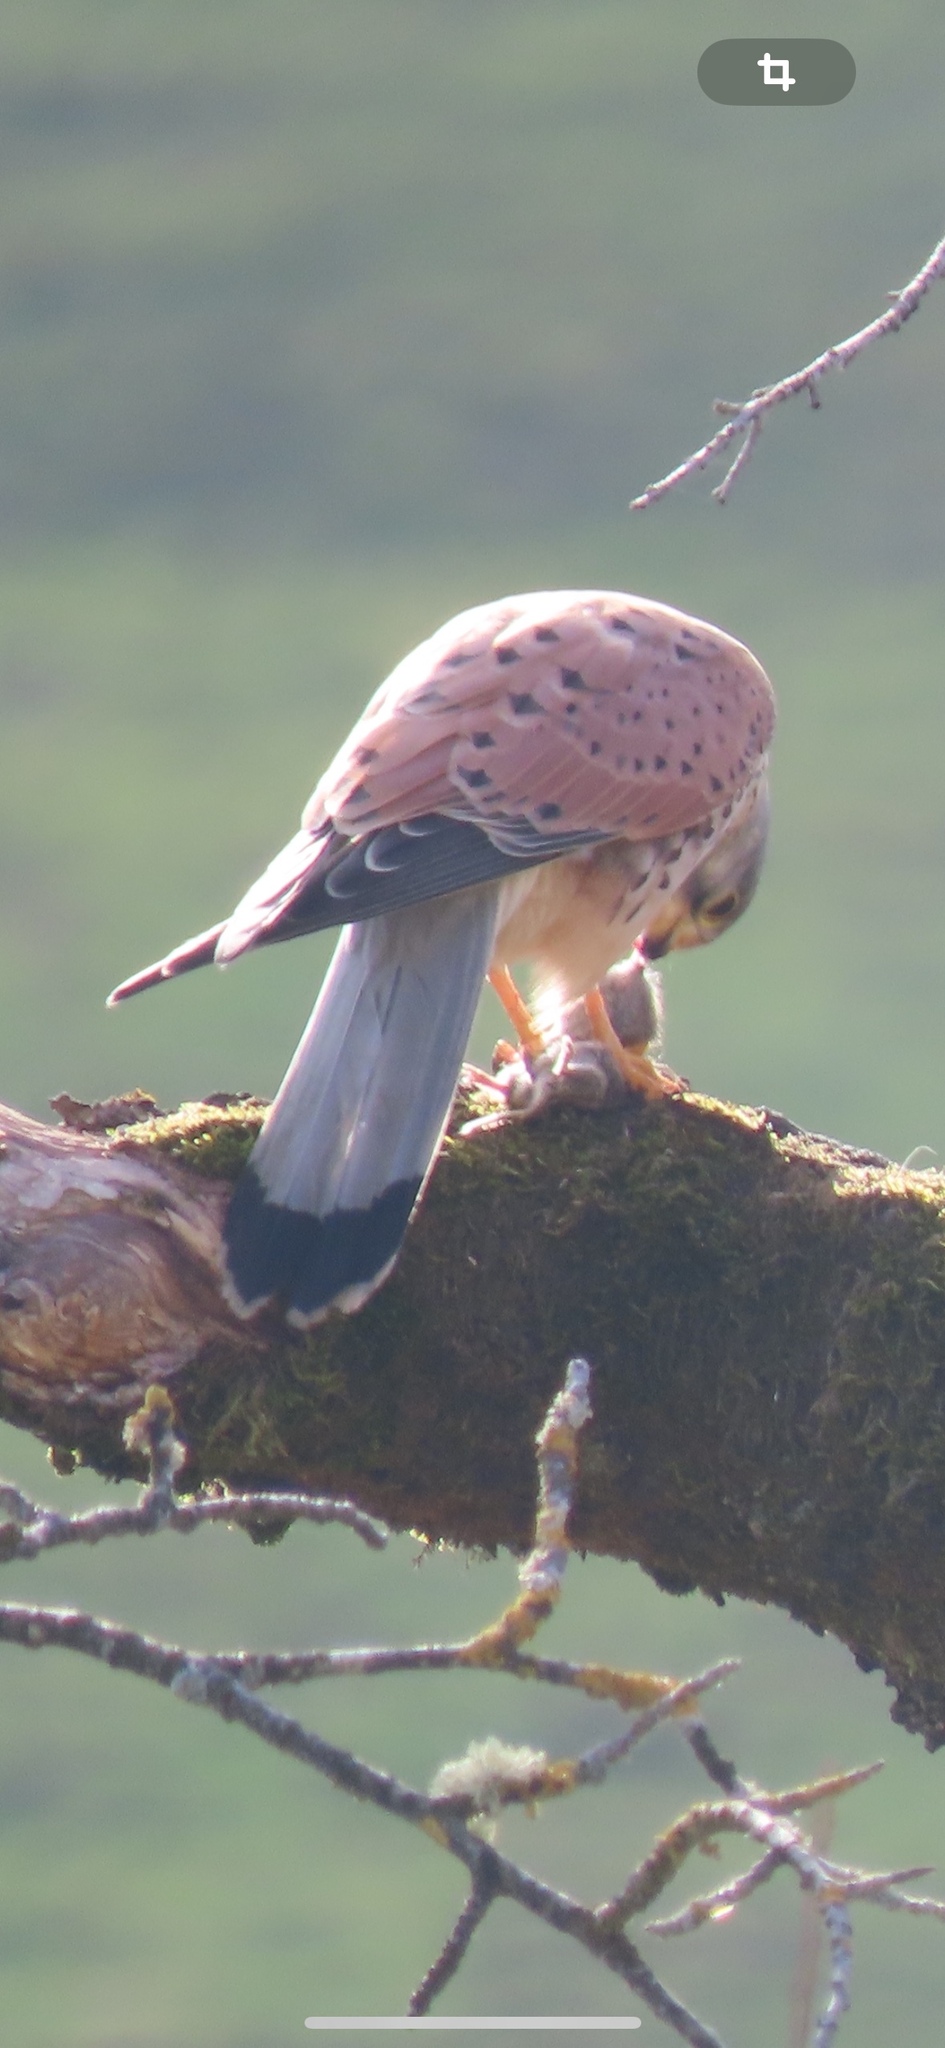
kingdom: Animalia
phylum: Chordata
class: Aves
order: Falconiformes
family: Falconidae
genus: Falco
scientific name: Falco tinnunculus
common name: Common kestrel
